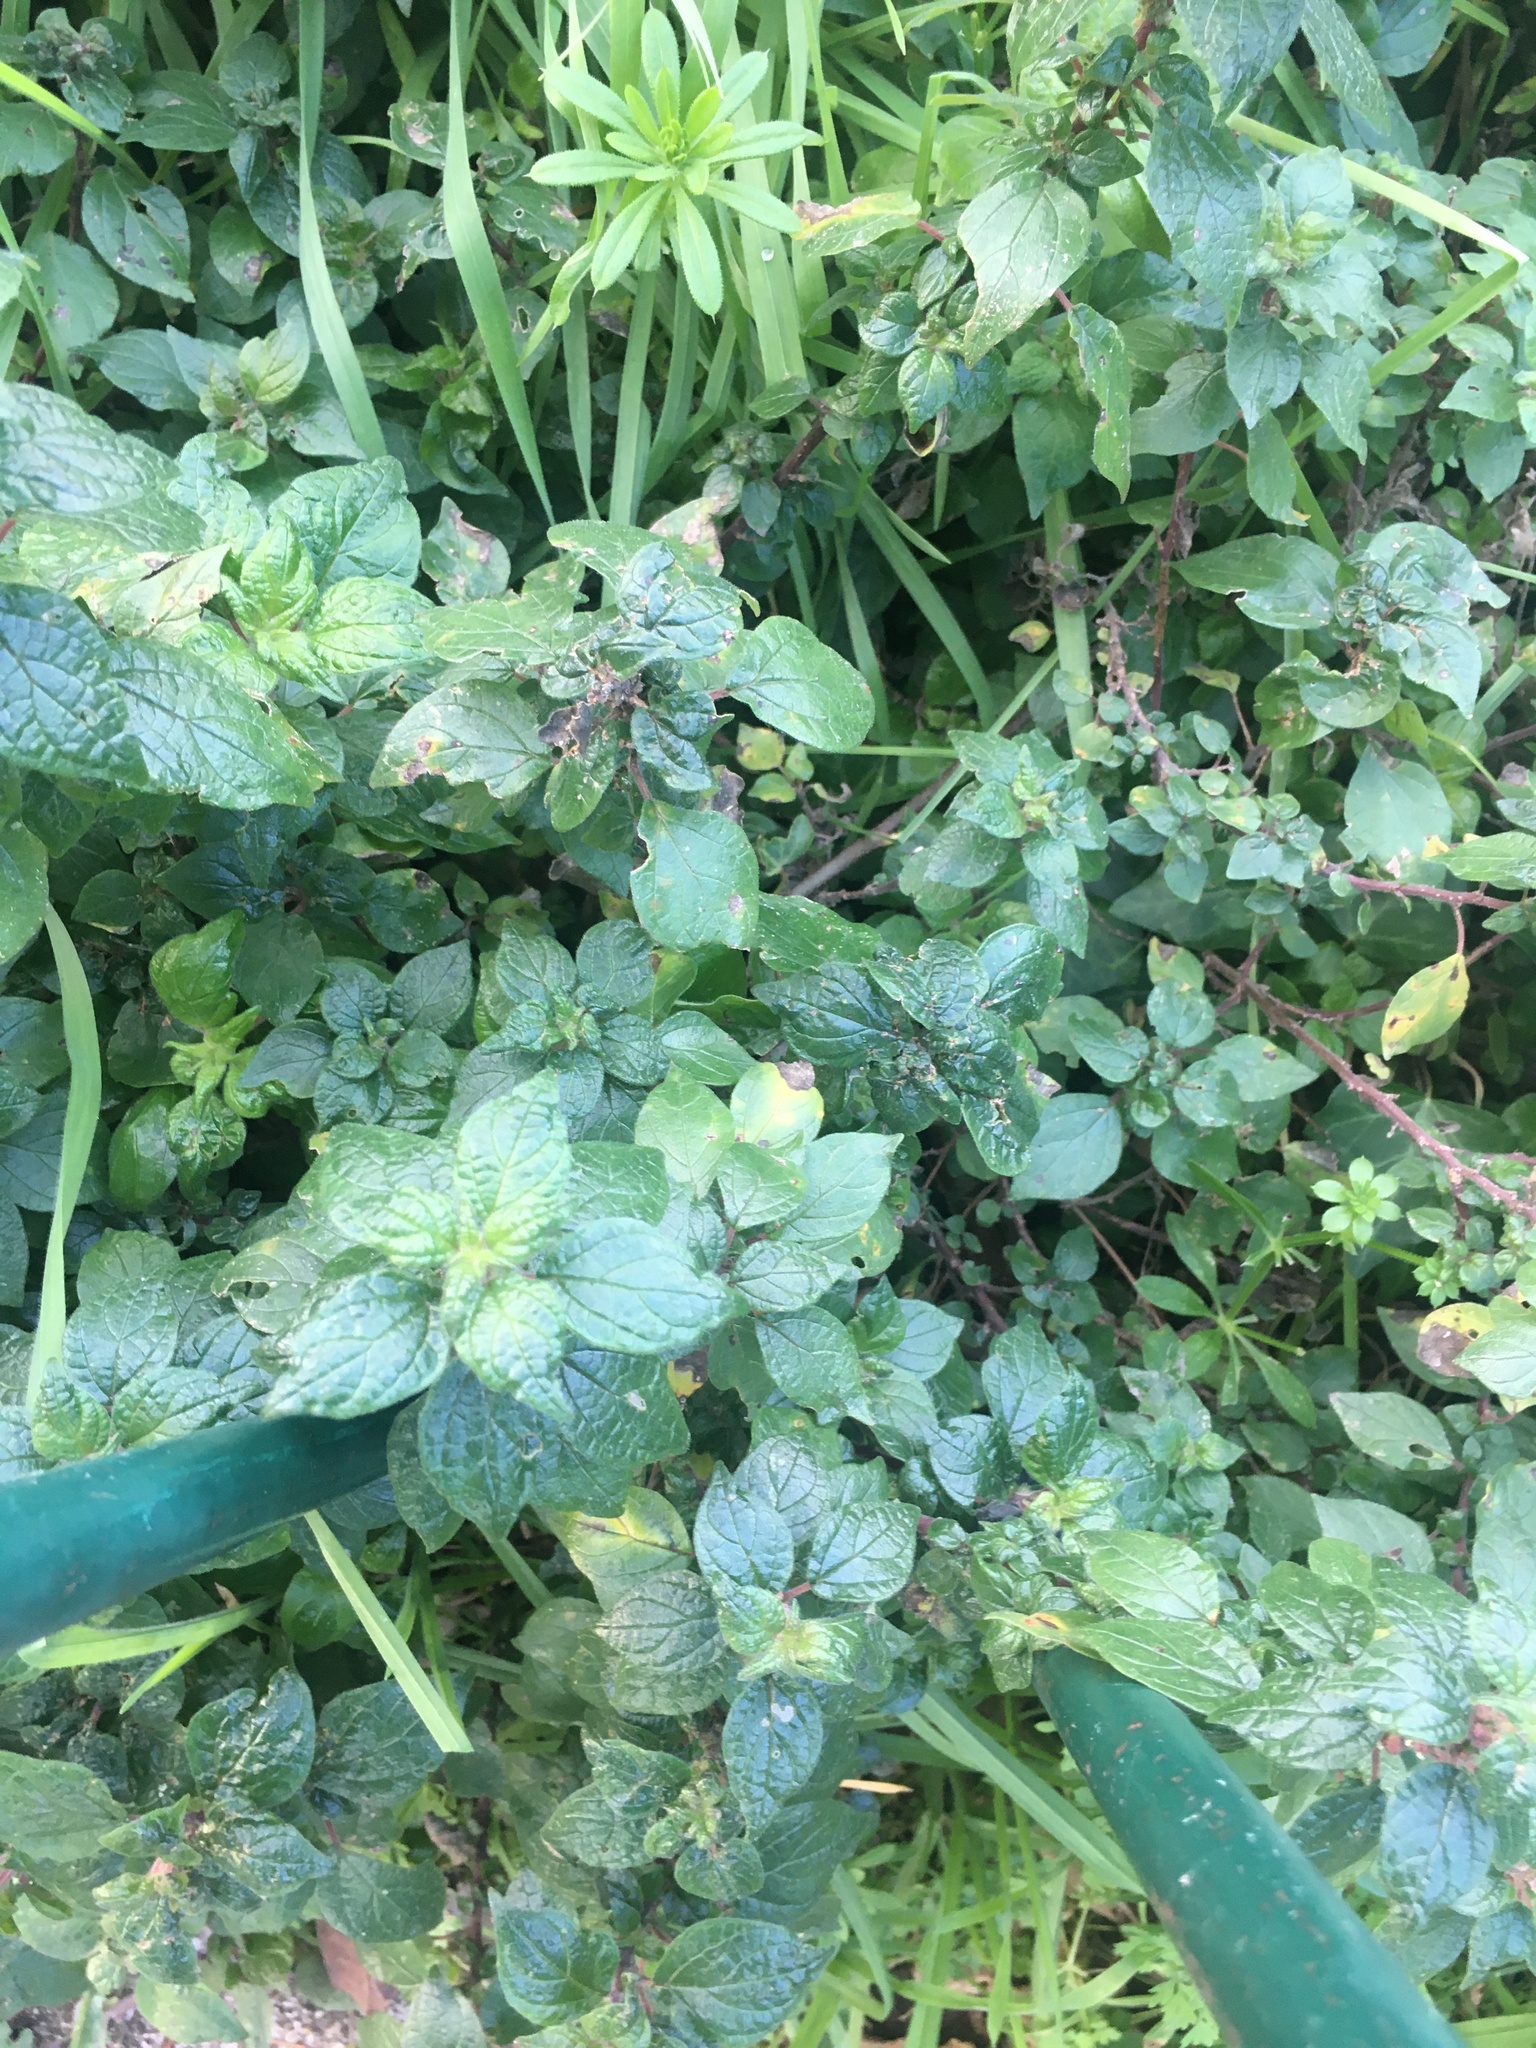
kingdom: Plantae
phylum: Tracheophyta
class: Magnoliopsida
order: Rosales
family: Urticaceae
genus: Parietaria
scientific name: Parietaria judaica
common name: Pellitory-of-the-wall
